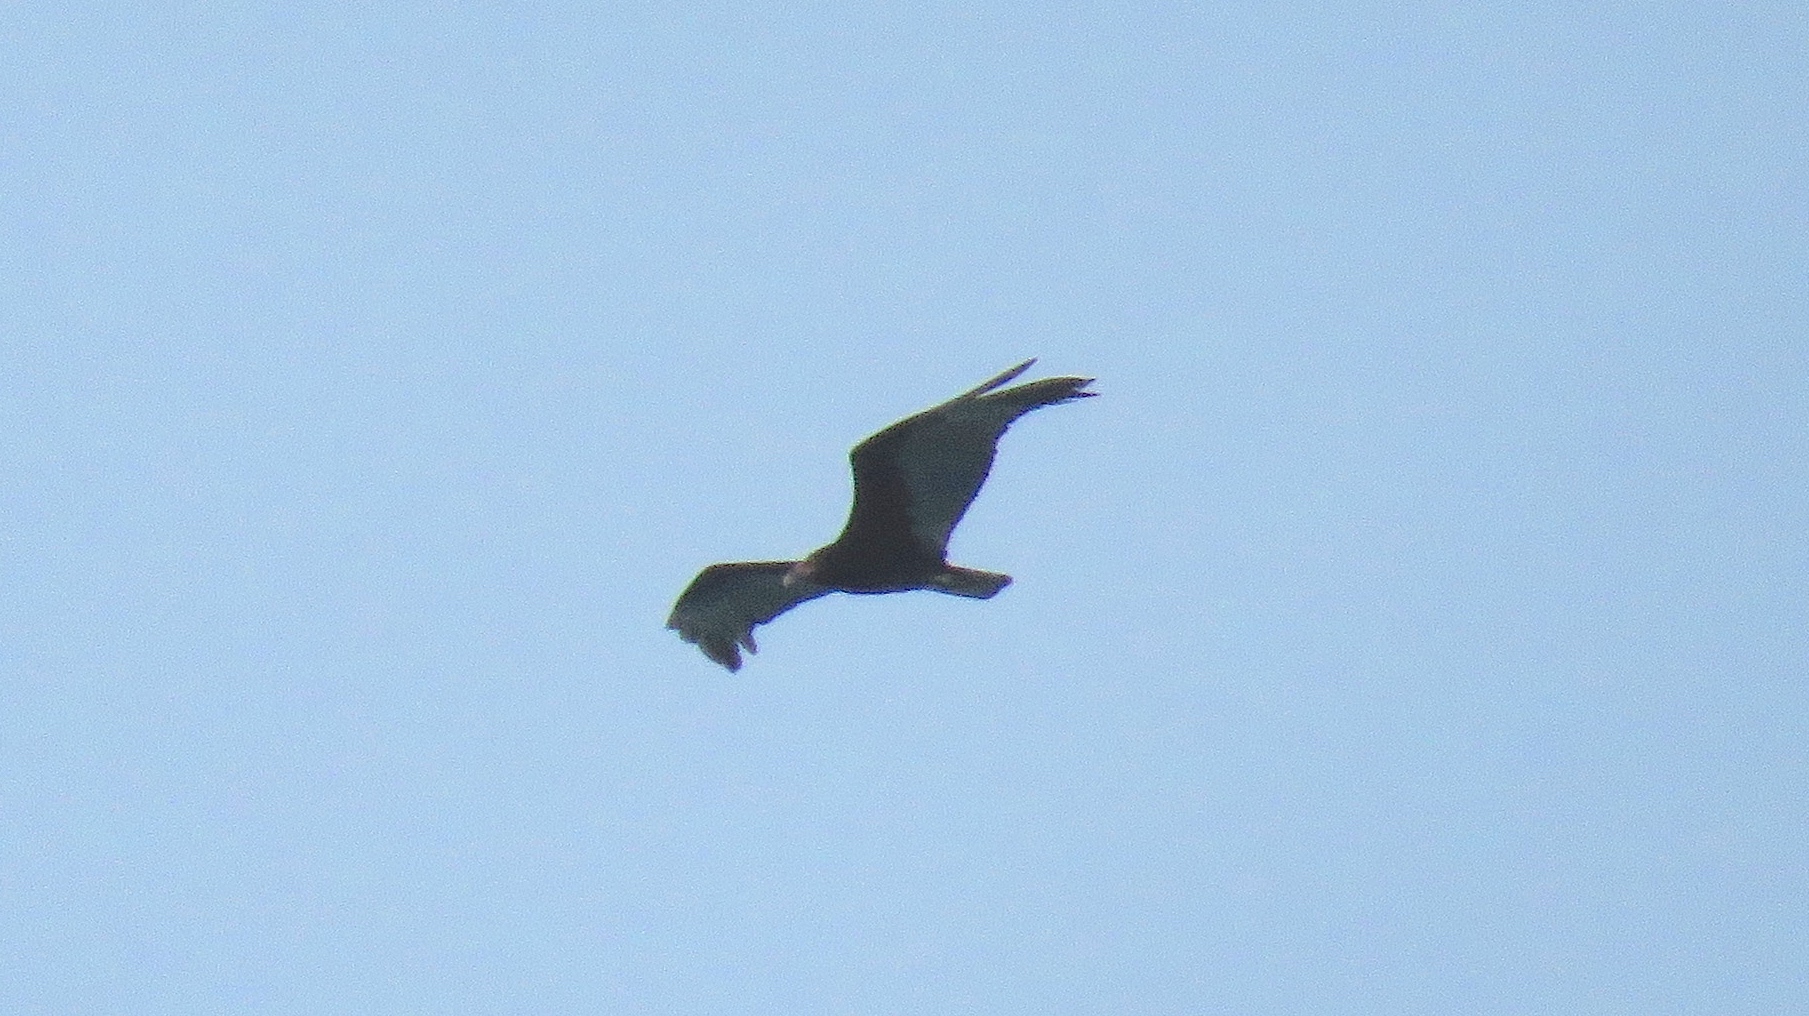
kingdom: Animalia
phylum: Chordata
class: Aves
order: Accipitriformes
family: Cathartidae
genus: Cathartes
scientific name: Cathartes burrovianus
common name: Lesser yellow-headed vulture
